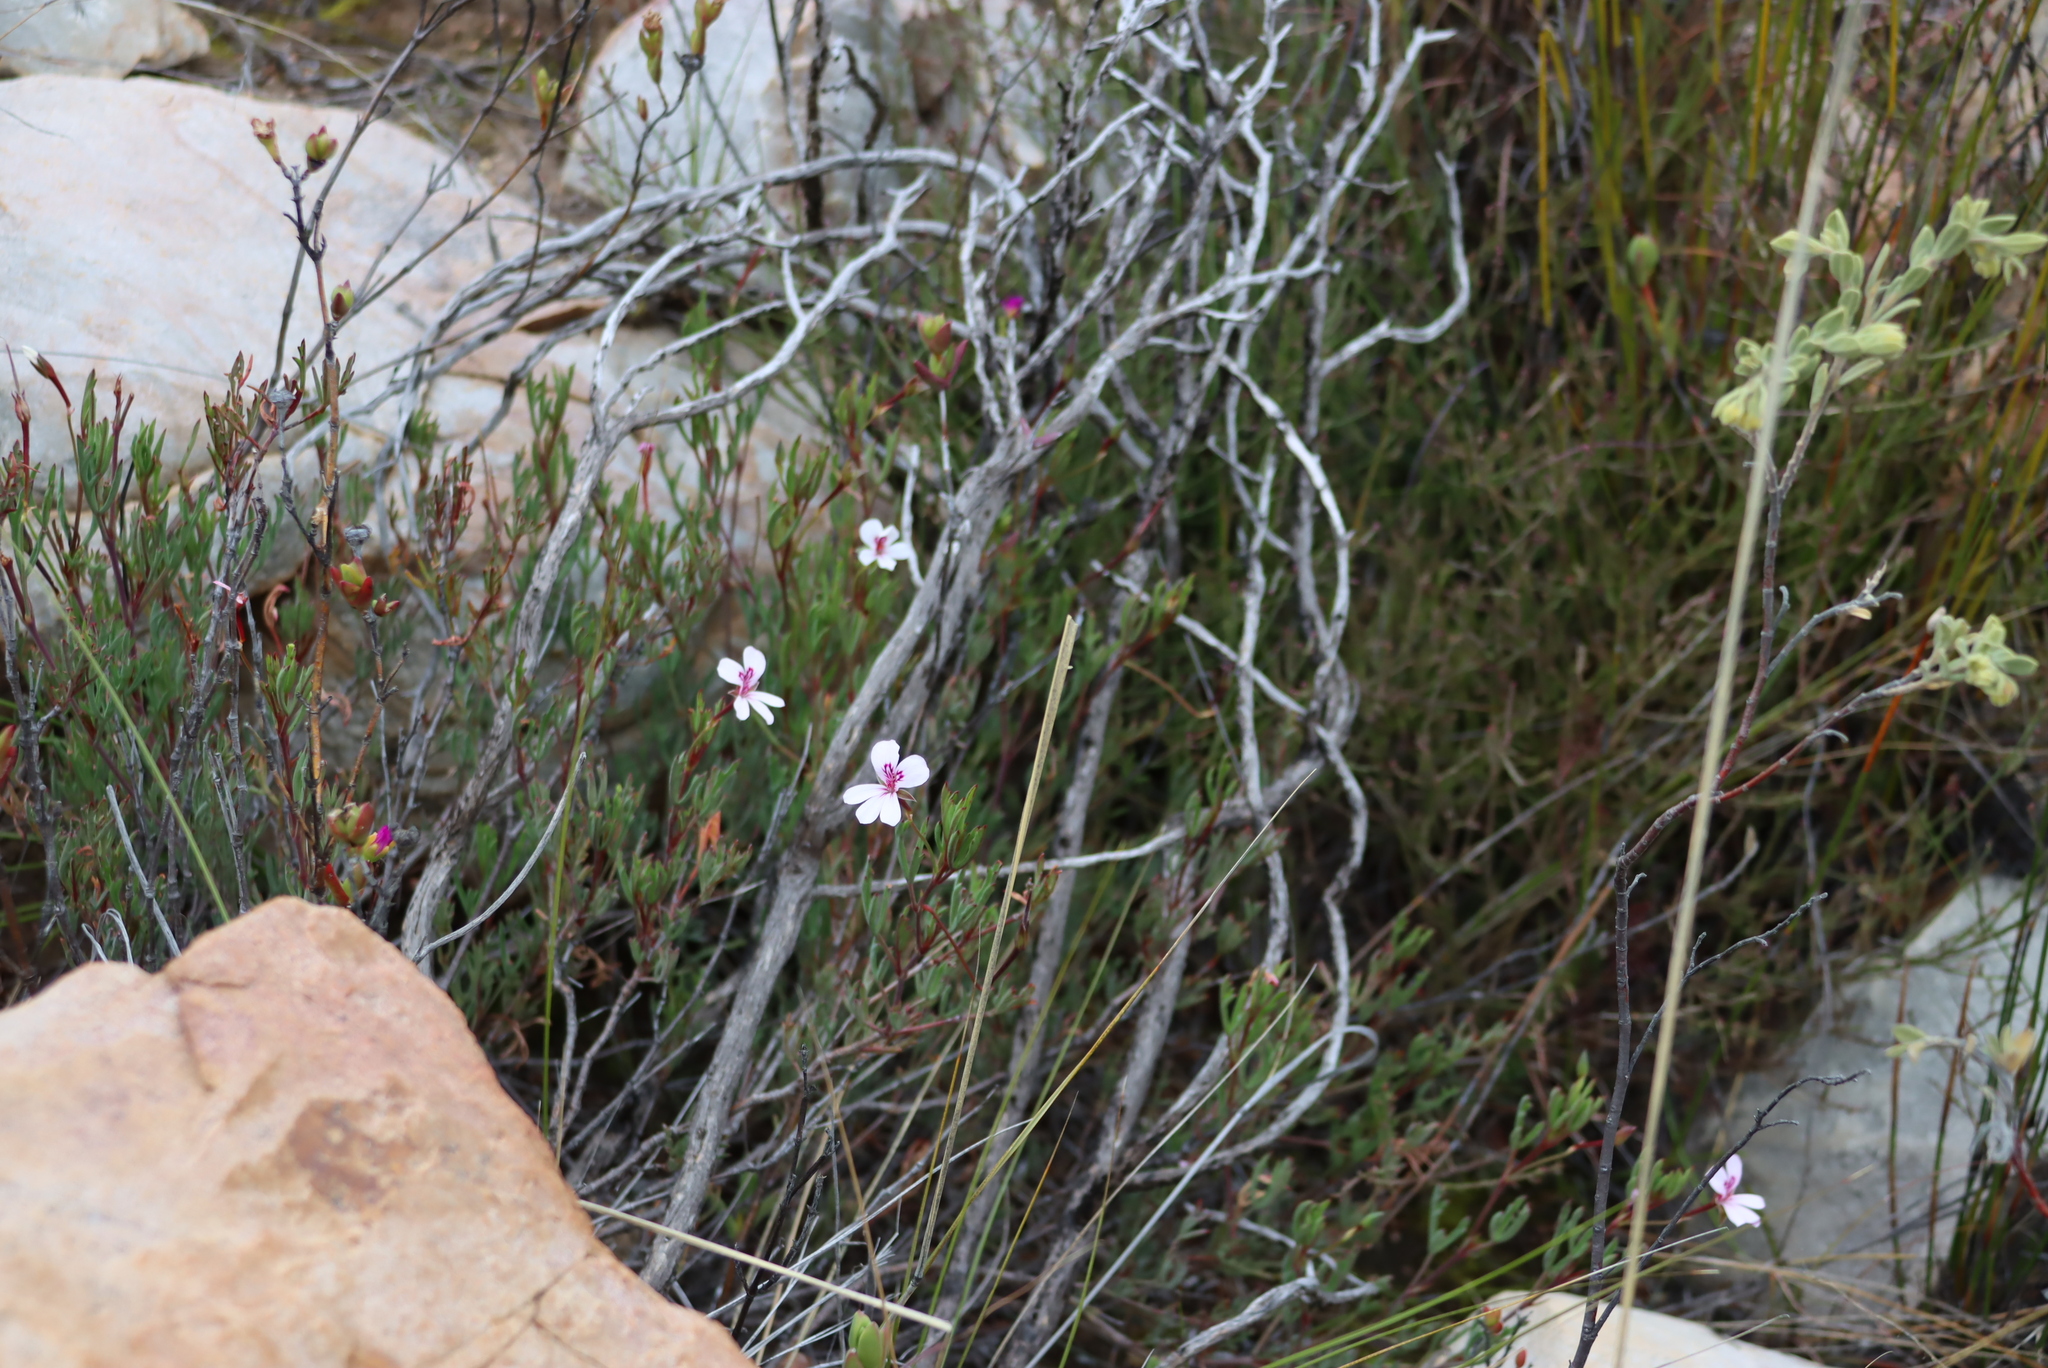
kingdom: Plantae
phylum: Tracheophyta
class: Magnoliopsida
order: Geraniales
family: Geraniaceae
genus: Pelargonium
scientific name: Pelargonium laevigatum
